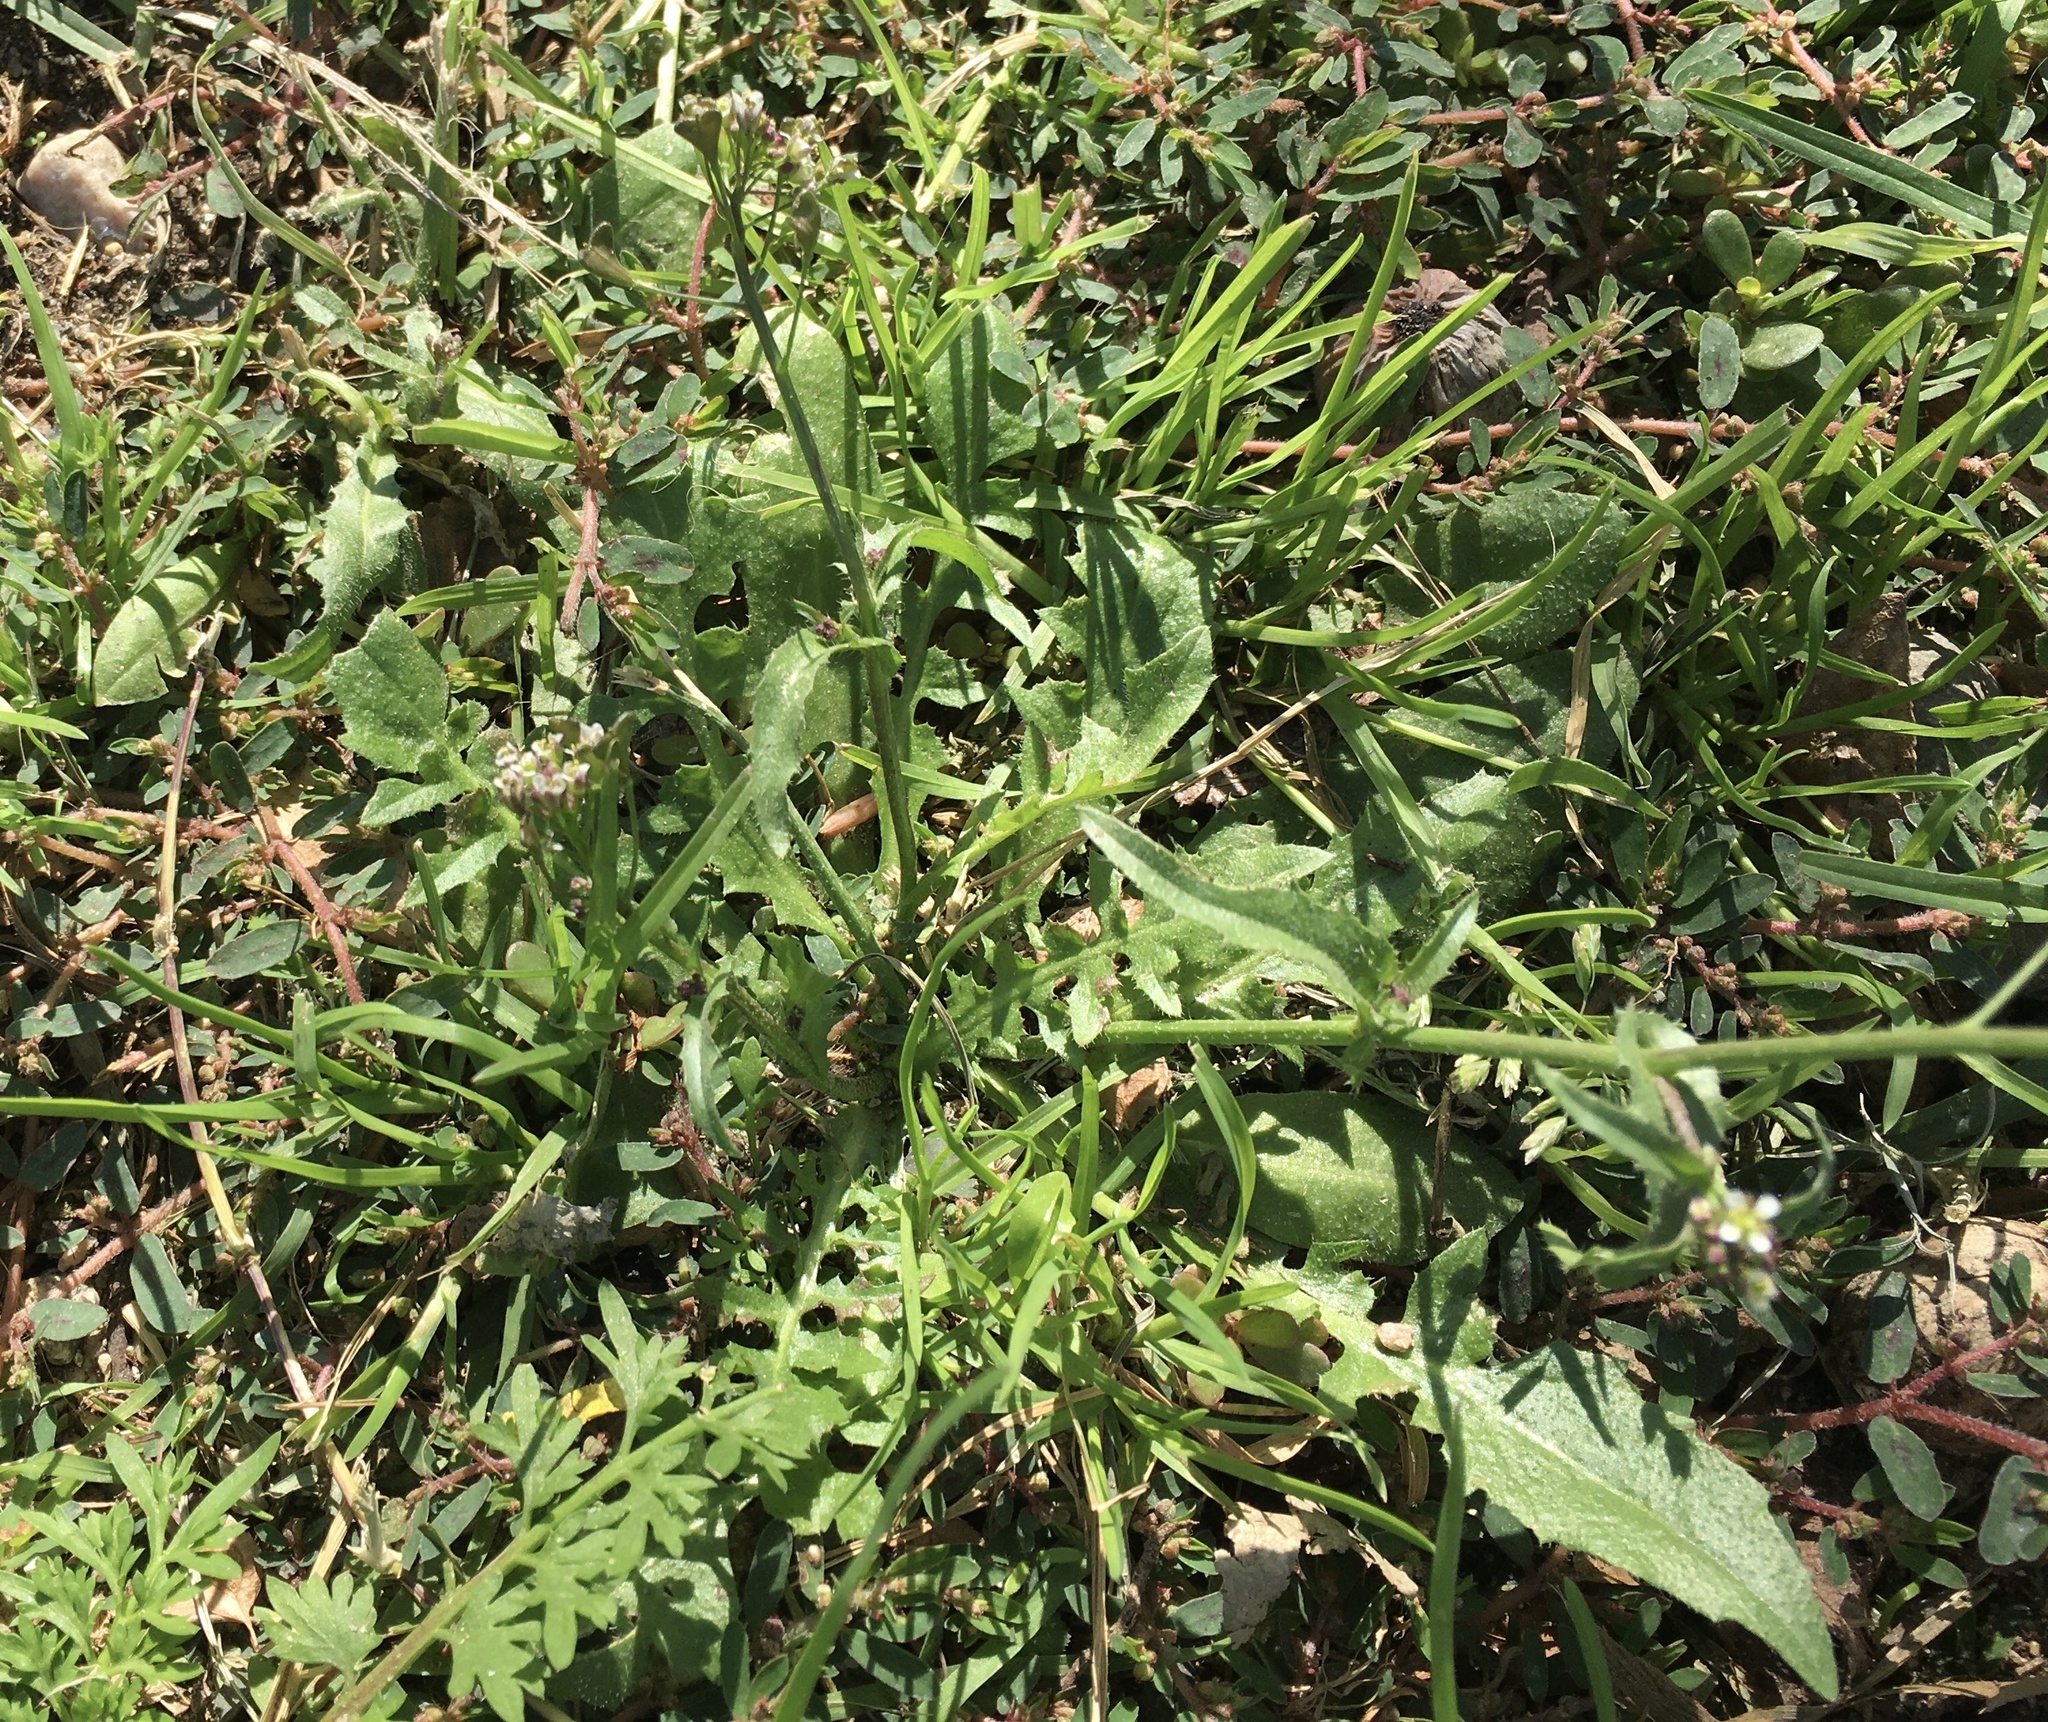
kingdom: Plantae
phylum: Tracheophyta
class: Magnoliopsida
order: Brassicales
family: Brassicaceae
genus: Capsella
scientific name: Capsella bursa-pastoris
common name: Shepherd's purse
